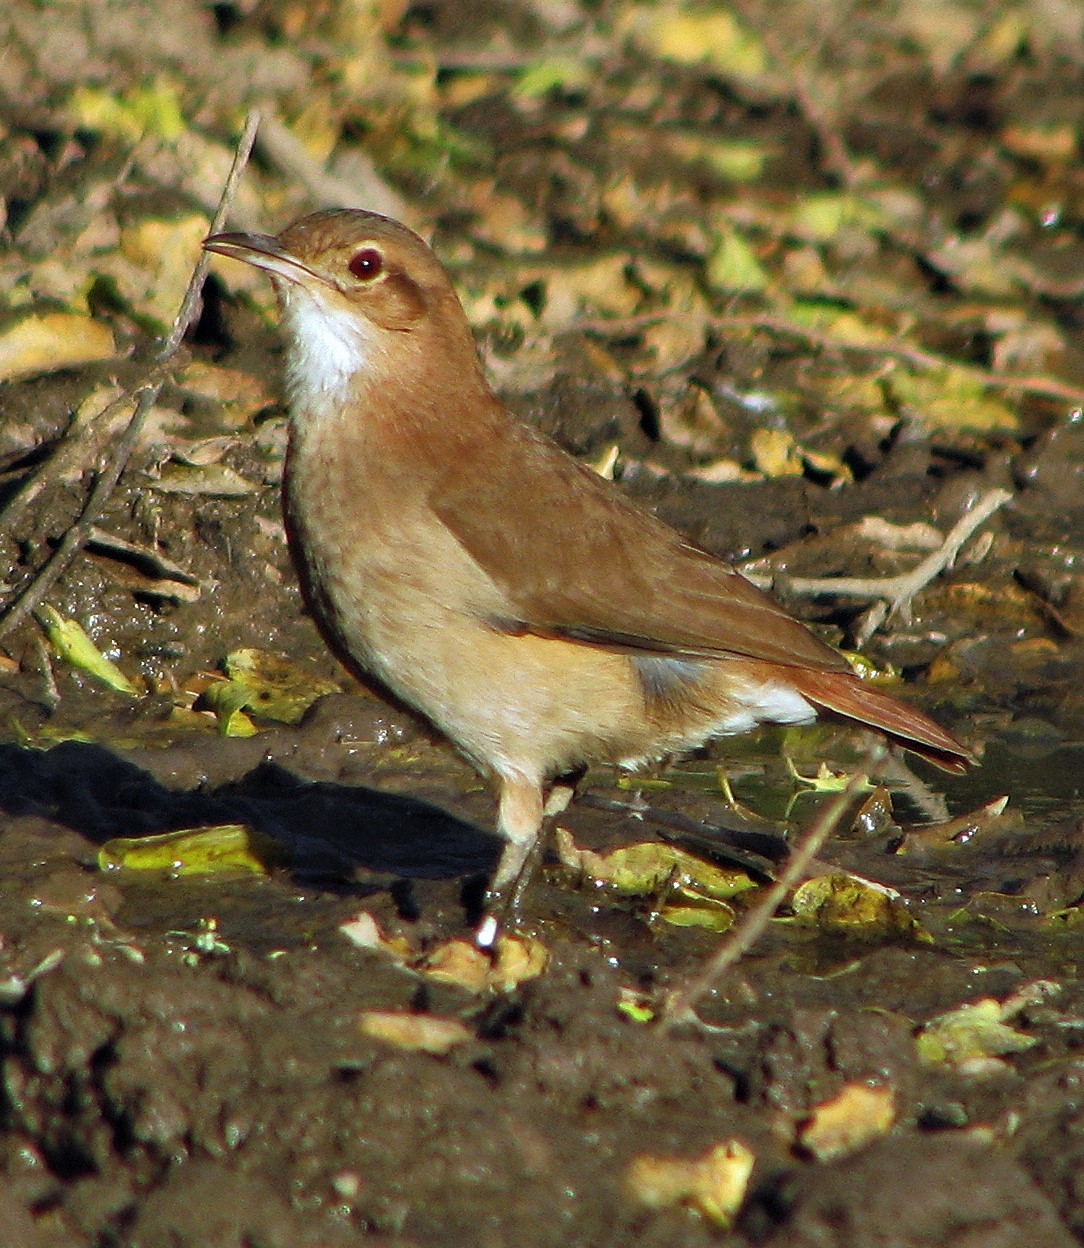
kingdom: Animalia
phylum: Chordata
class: Aves
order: Passeriformes
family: Furnariidae
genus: Furnarius
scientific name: Furnarius rufus
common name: Rufous hornero
